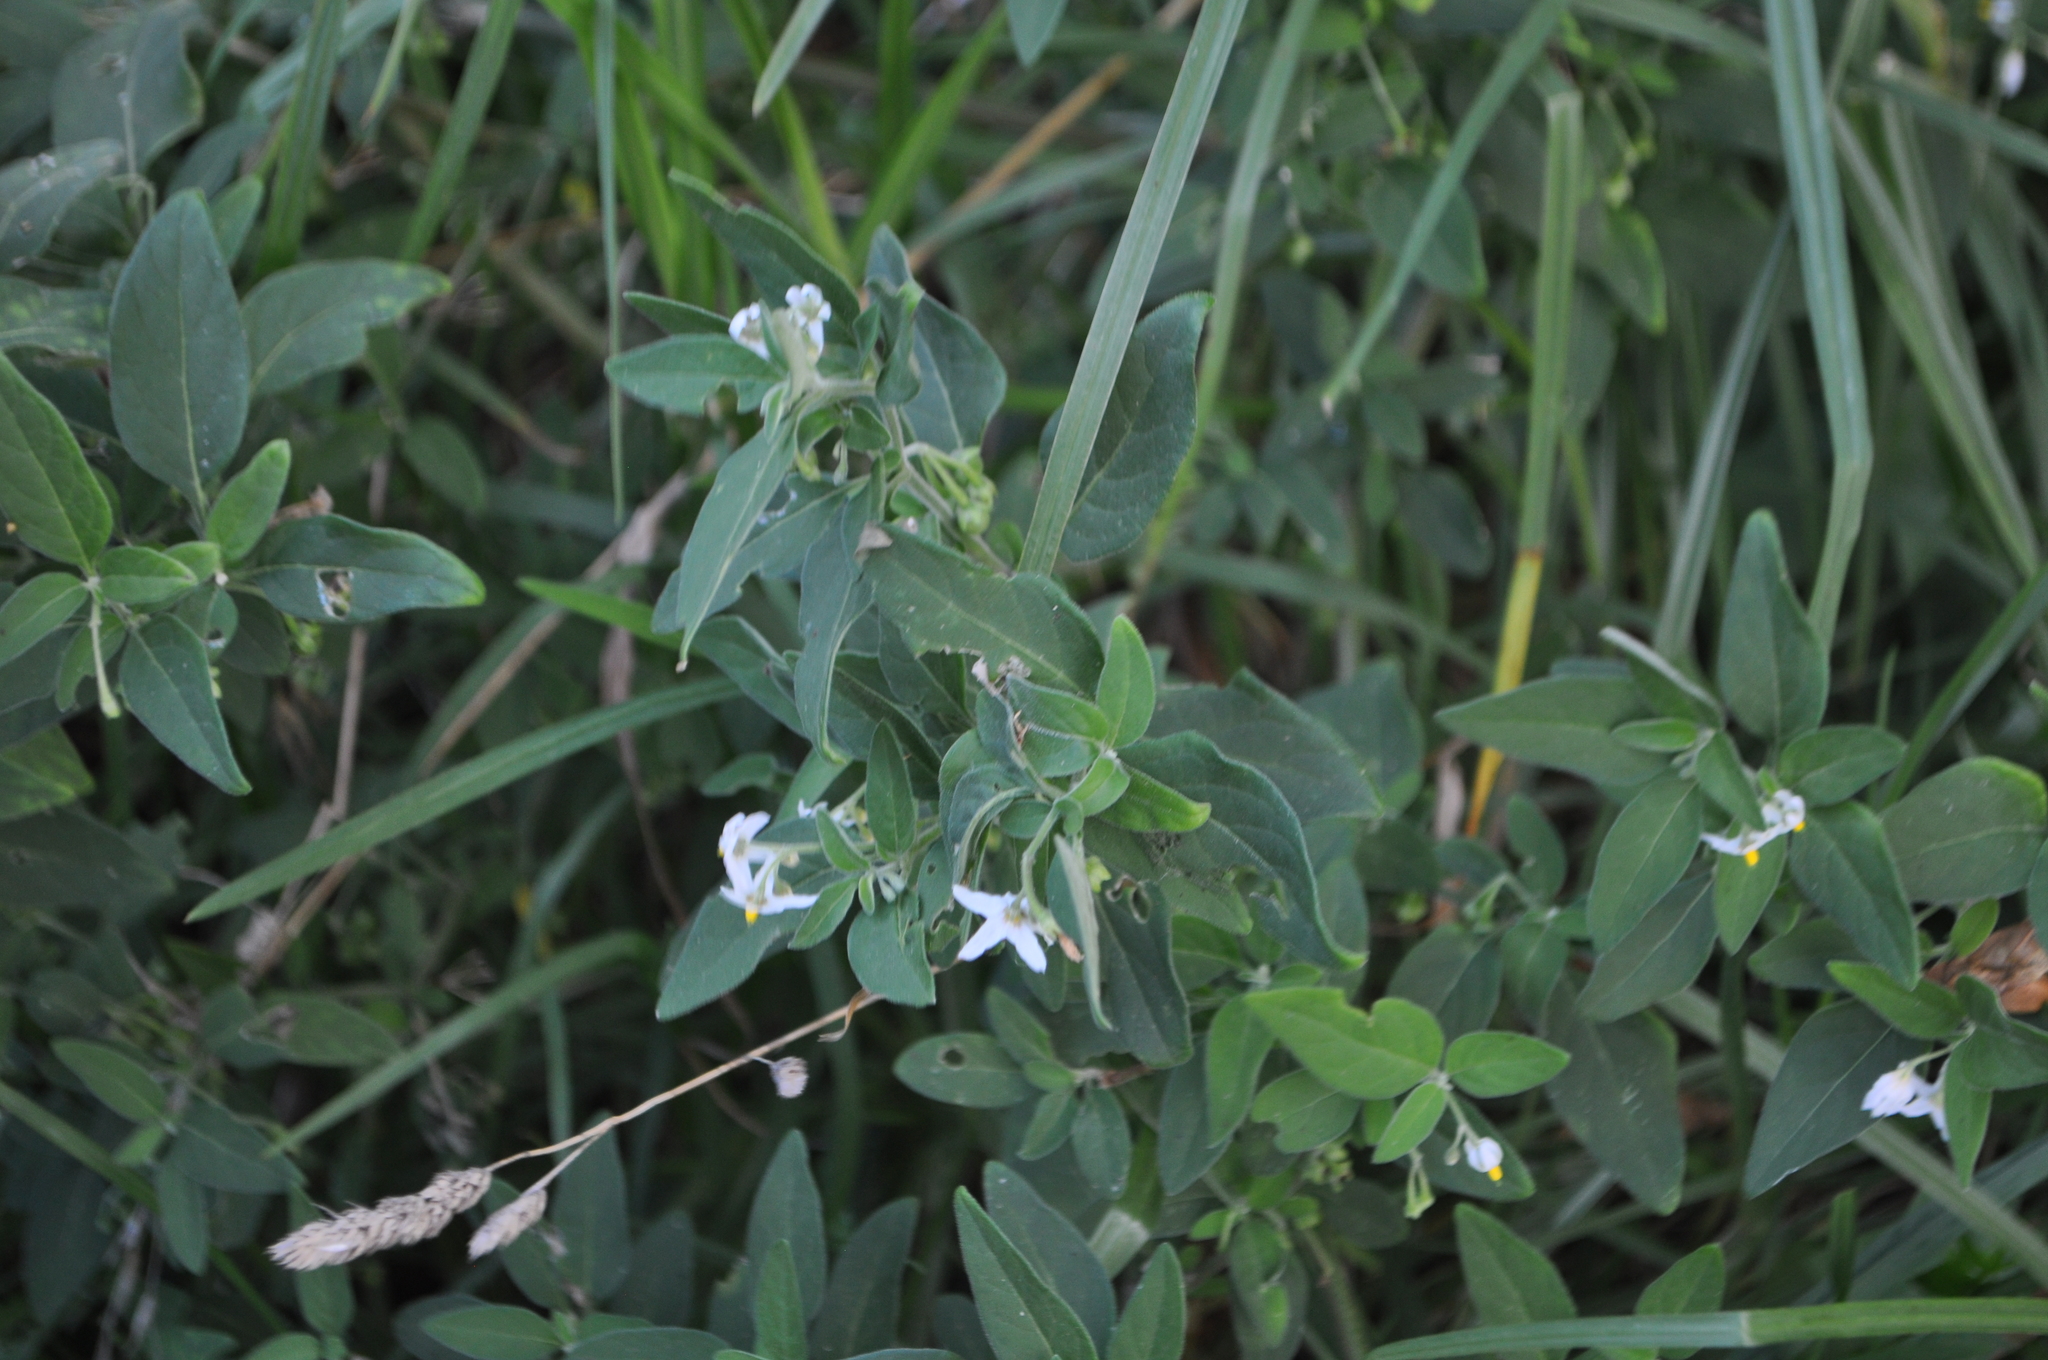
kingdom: Plantae
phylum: Tracheophyta
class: Magnoliopsida
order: Solanales
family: Solanaceae
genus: Solanum
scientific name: Solanum chenopodioides
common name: Tall nightshade
